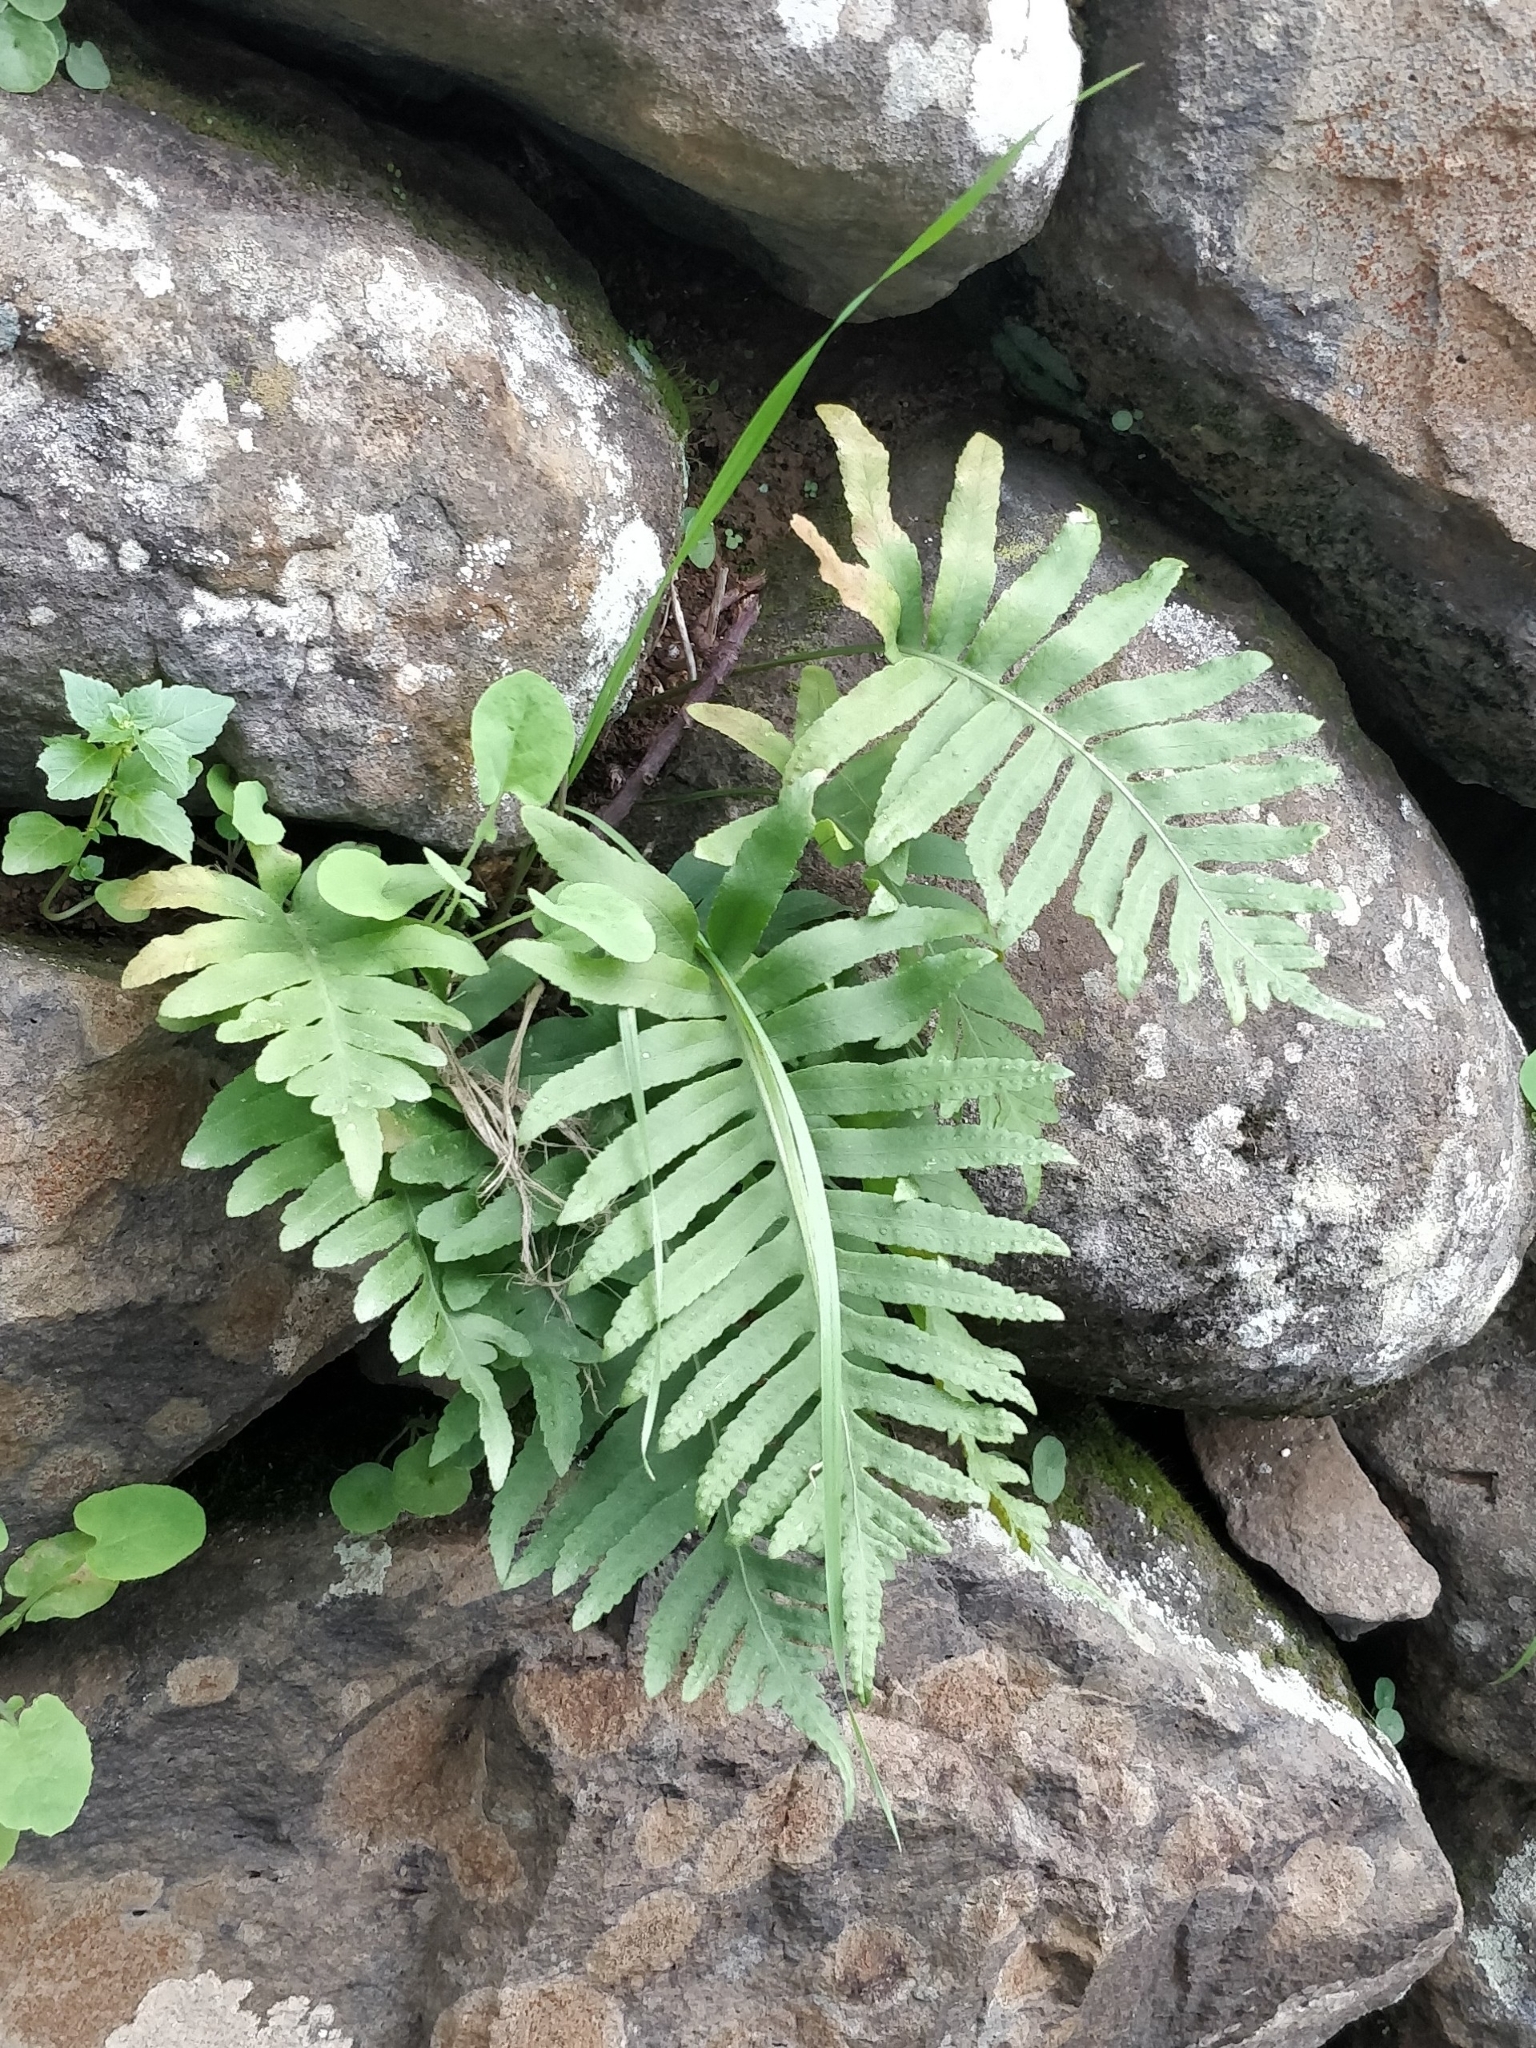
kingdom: Plantae
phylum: Tracheophyta
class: Polypodiopsida
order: Polypodiales
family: Polypodiaceae
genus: Polypodium
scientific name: Polypodium macaronesicum
